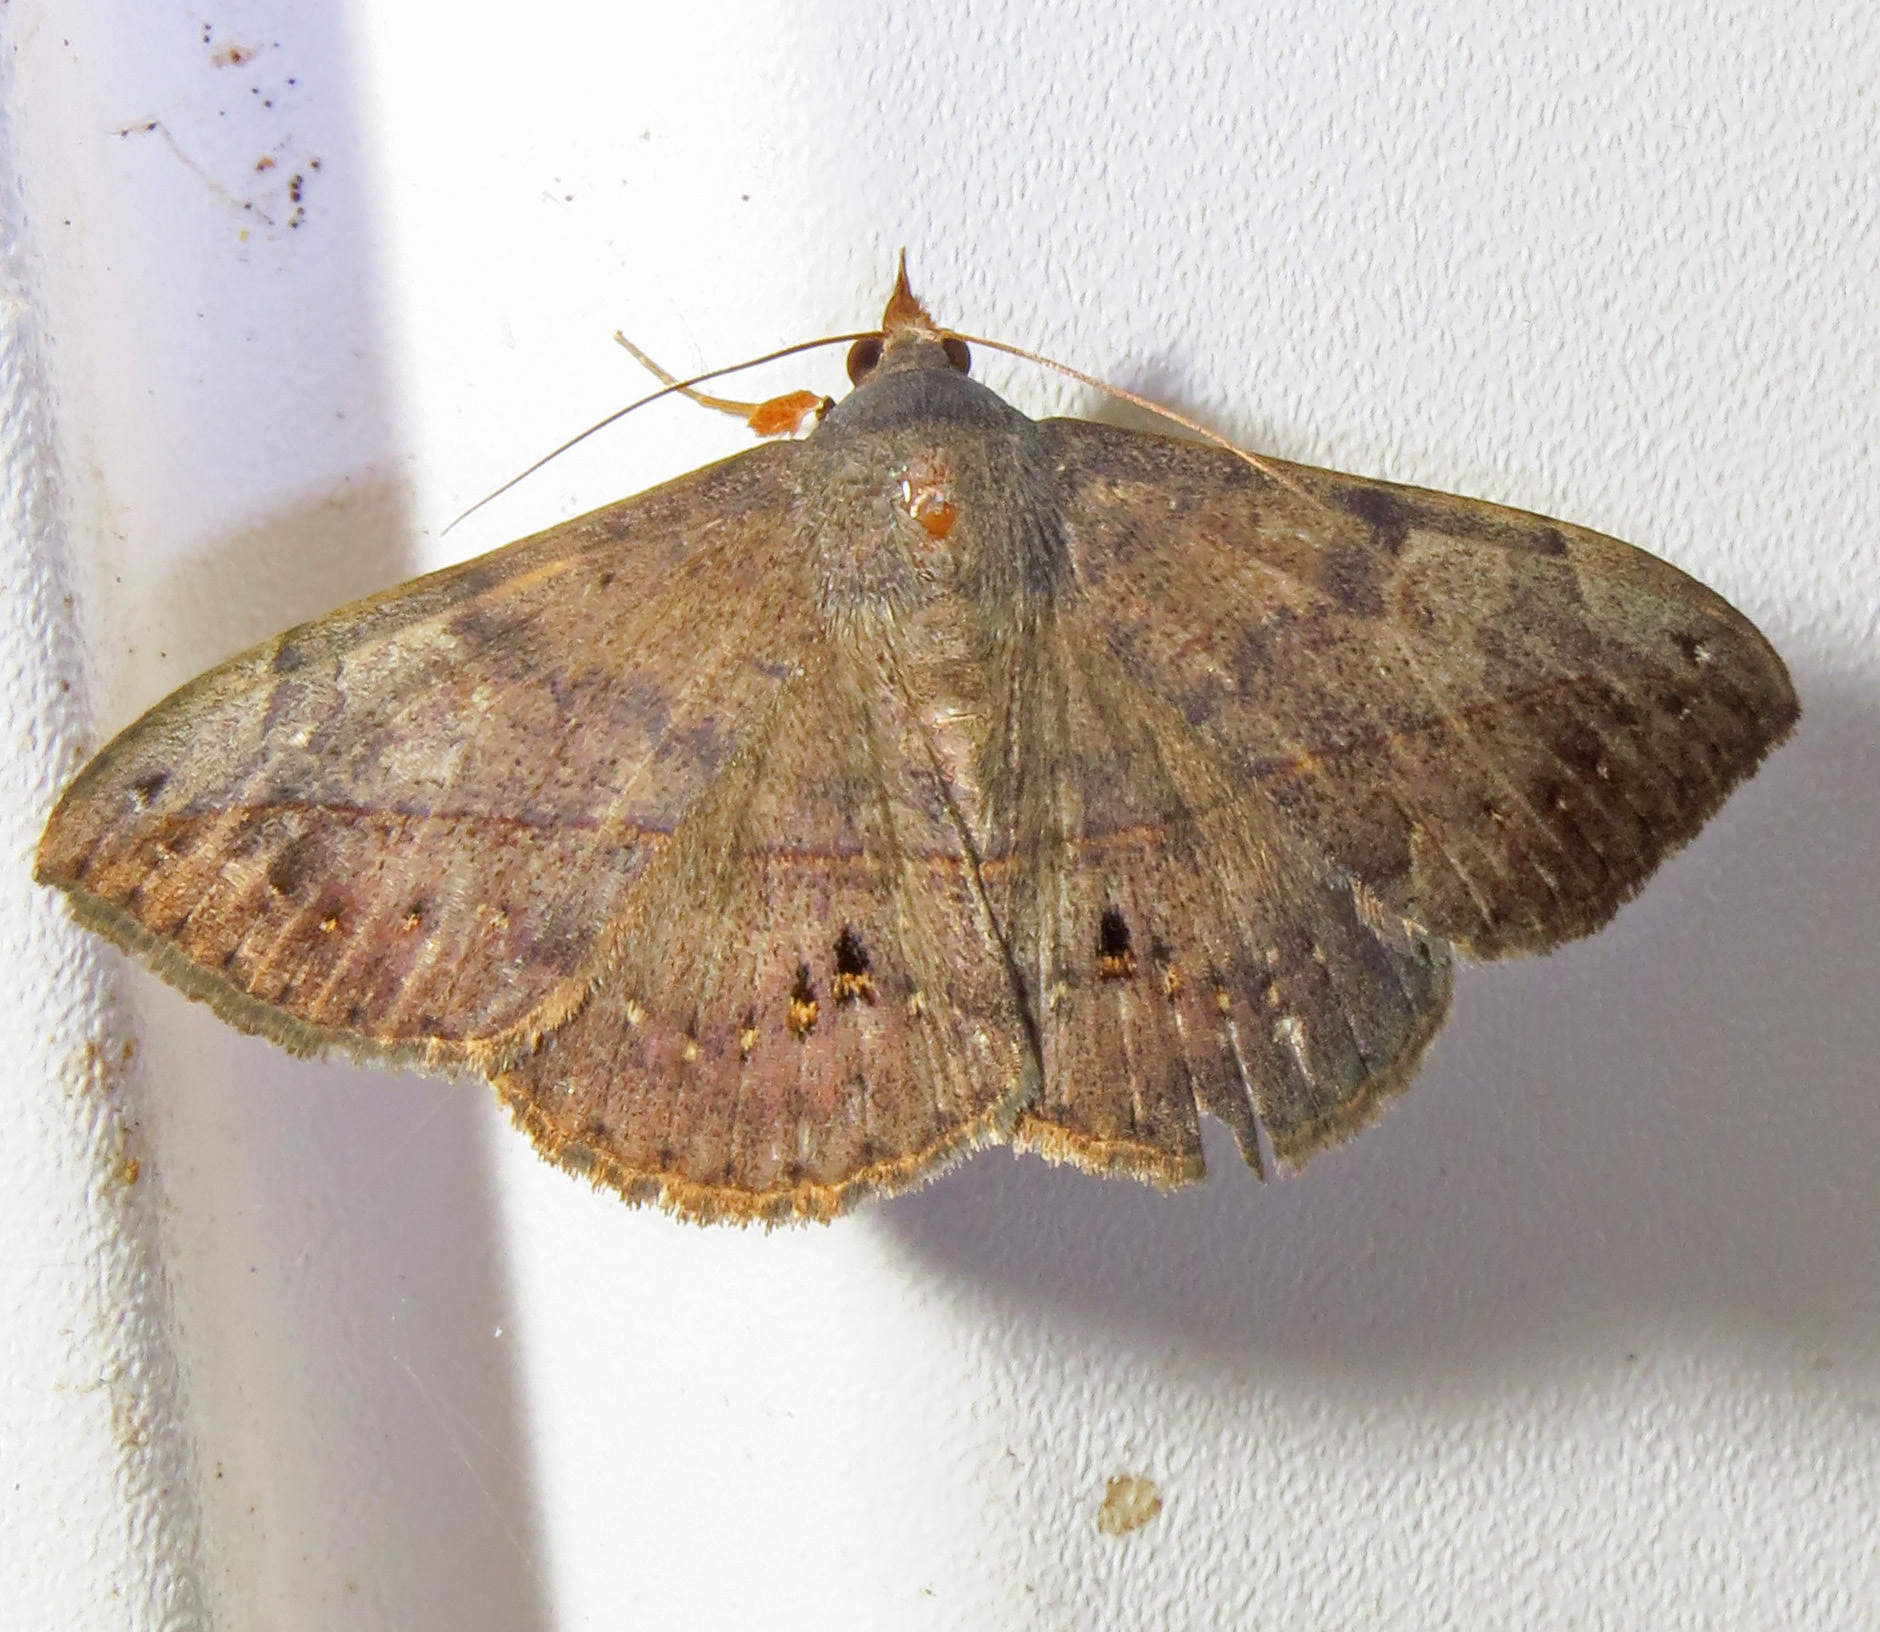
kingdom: Animalia
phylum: Arthropoda
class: Insecta
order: Lepidoptera
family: Erebidae
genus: Anticarsia
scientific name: Anticarsia gemmatalis
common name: Cutworm moth
